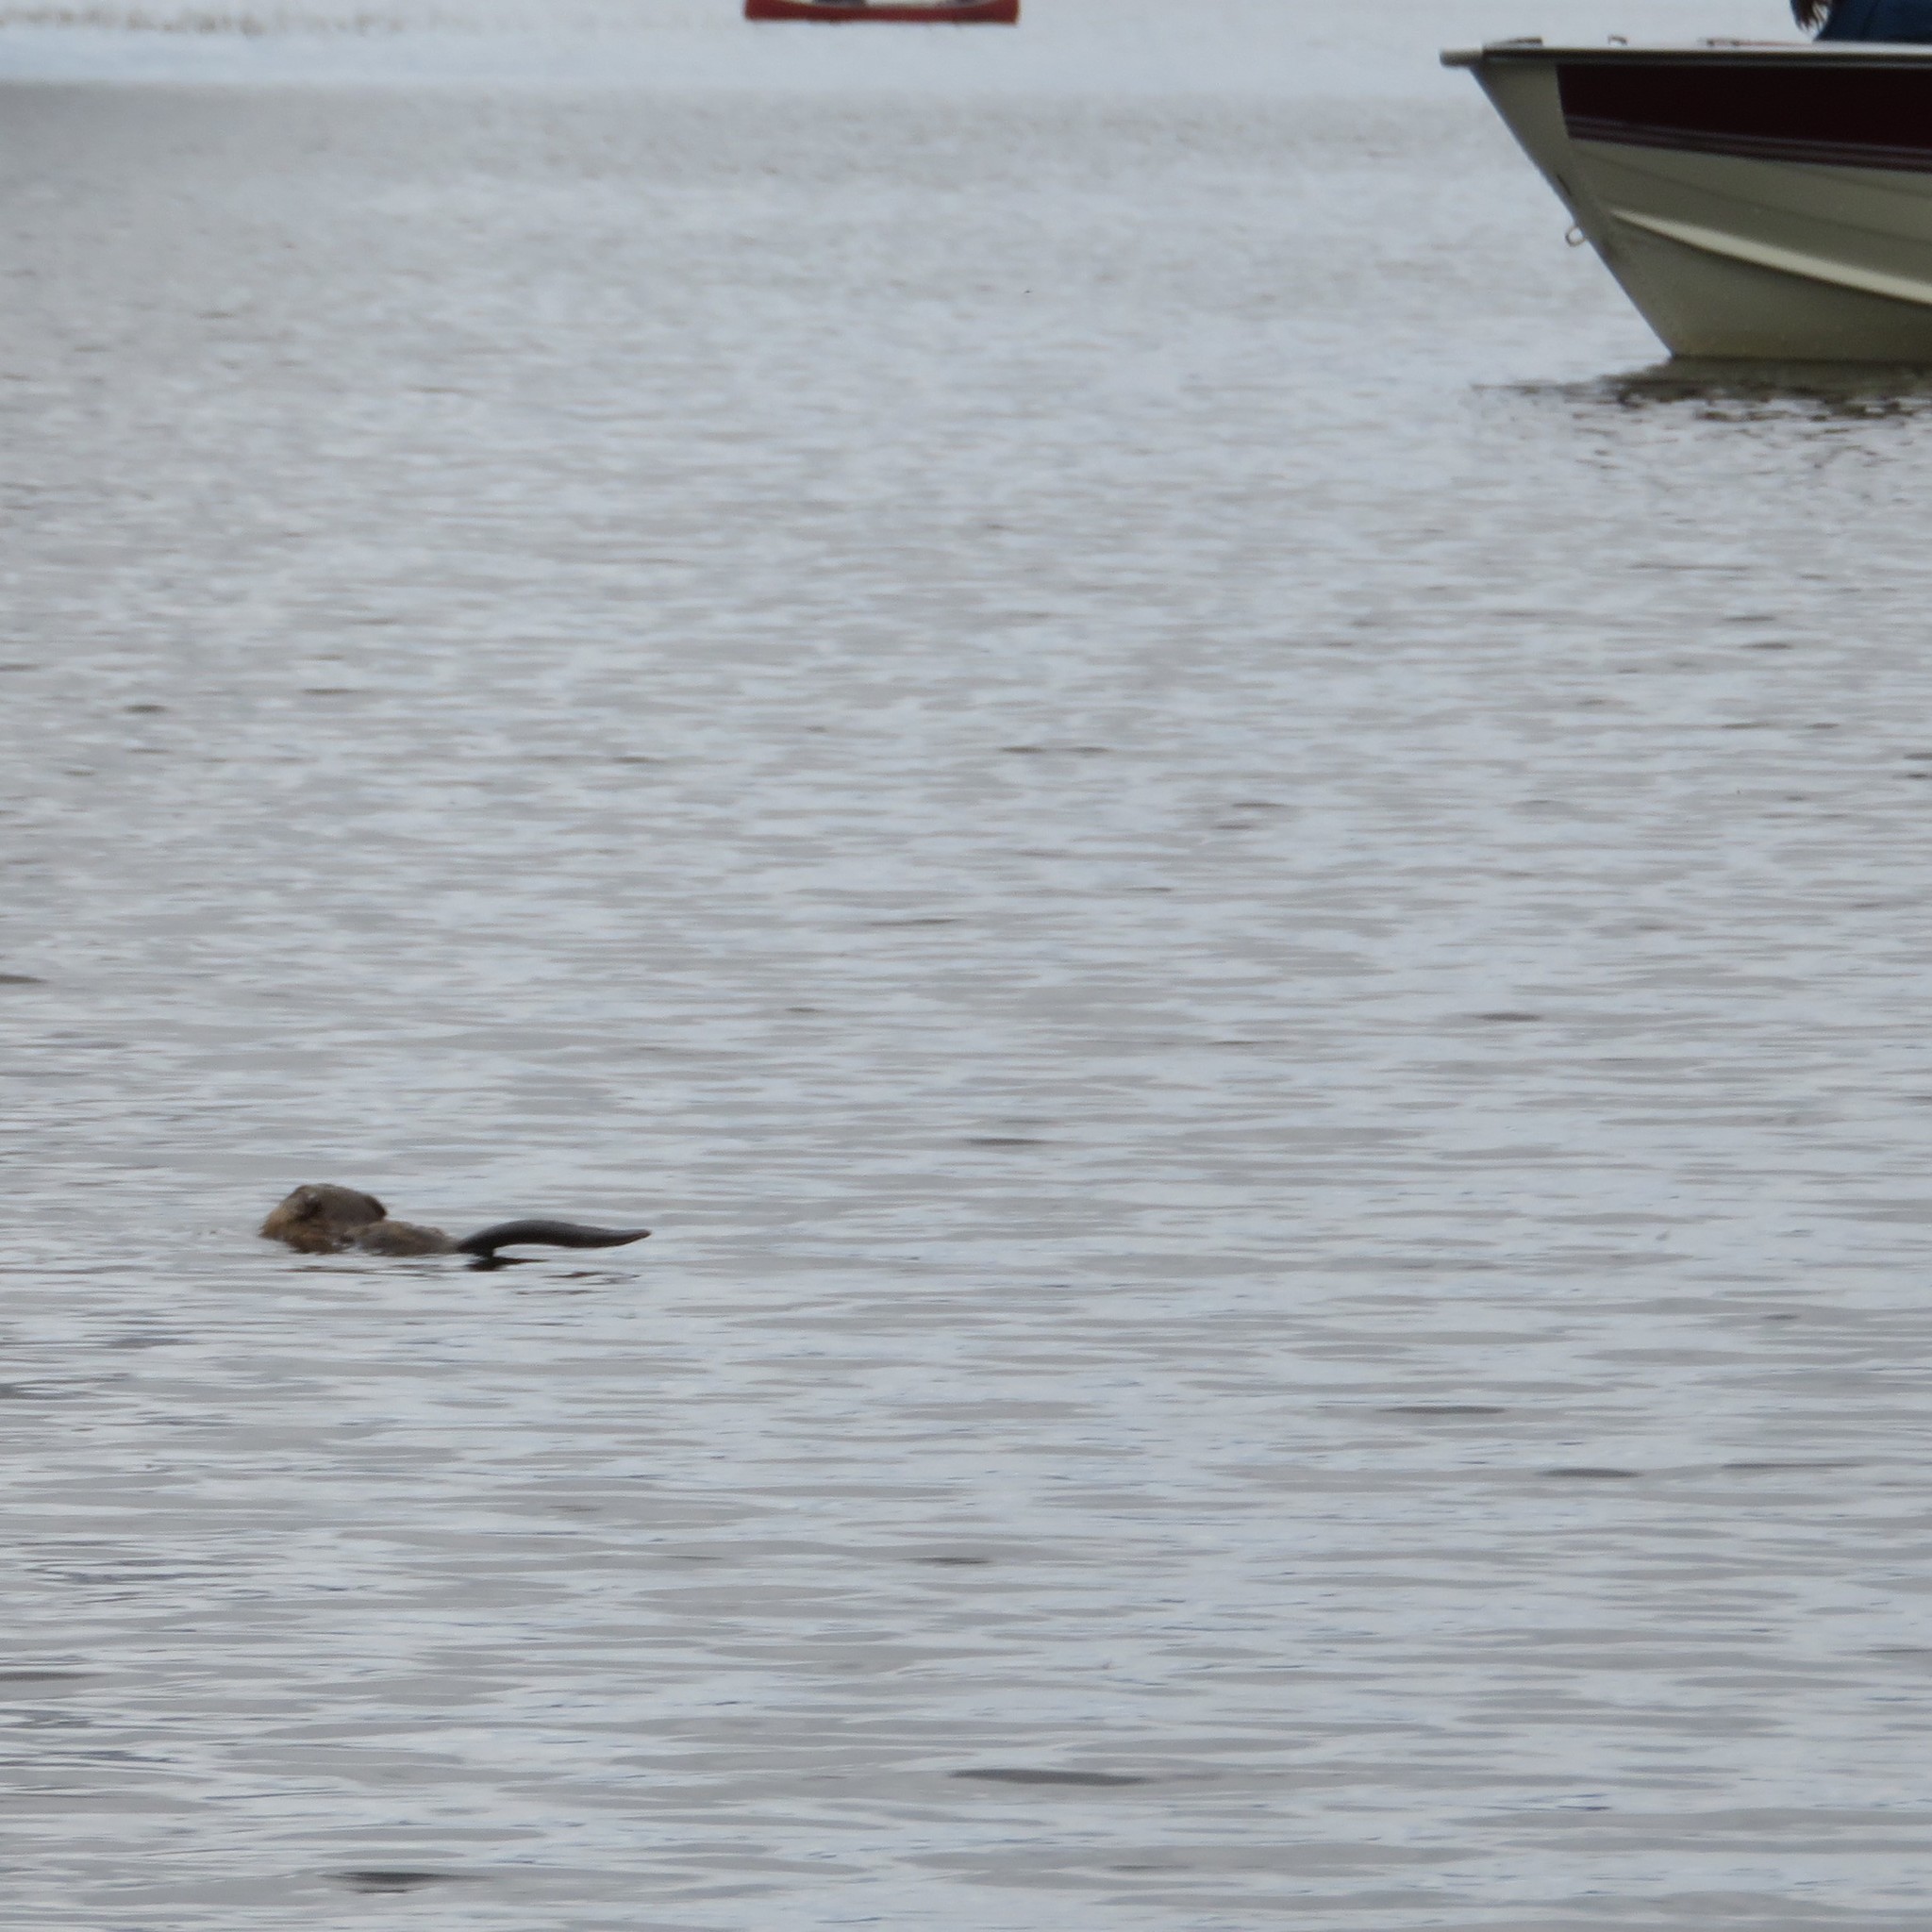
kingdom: Animalia
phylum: Chordata
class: Mammalia
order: Rodentia
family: Cricetidae
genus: Ondatra
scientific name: Ondatra zibethicus
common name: Muskrat
